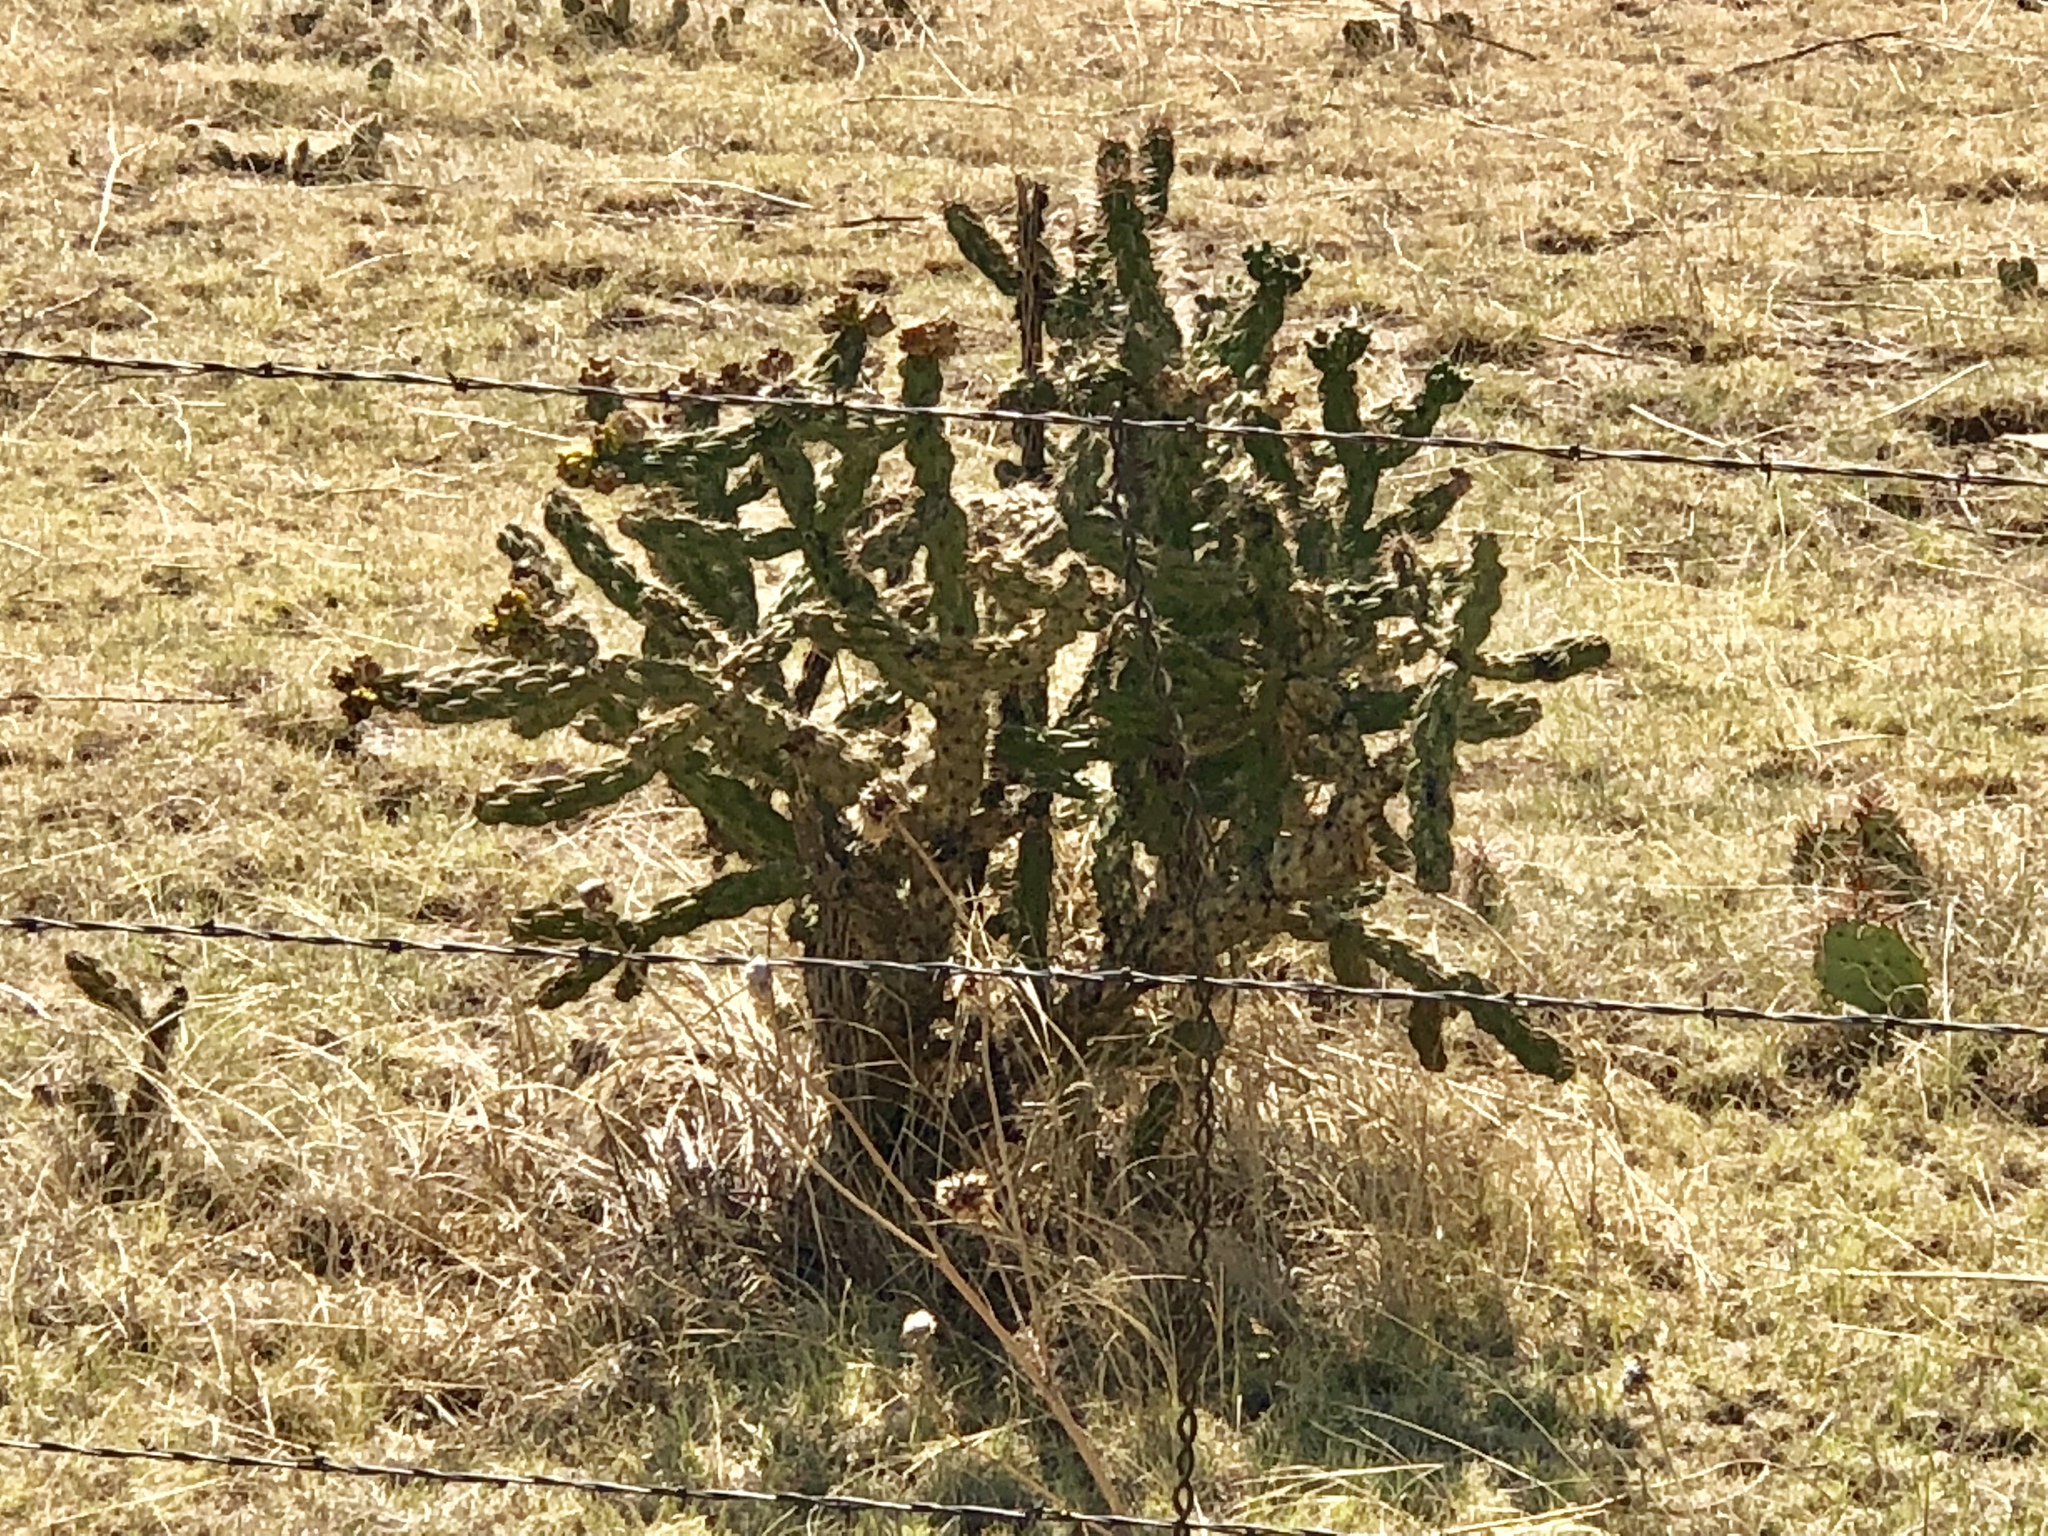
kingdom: Plantae
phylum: Tracheophyta
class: Magnoliopsida
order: Caryophyllales
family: Cactaceae
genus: Cylindropuntia
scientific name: Cylindropuntia imbricata
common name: Candelabrum cactus
